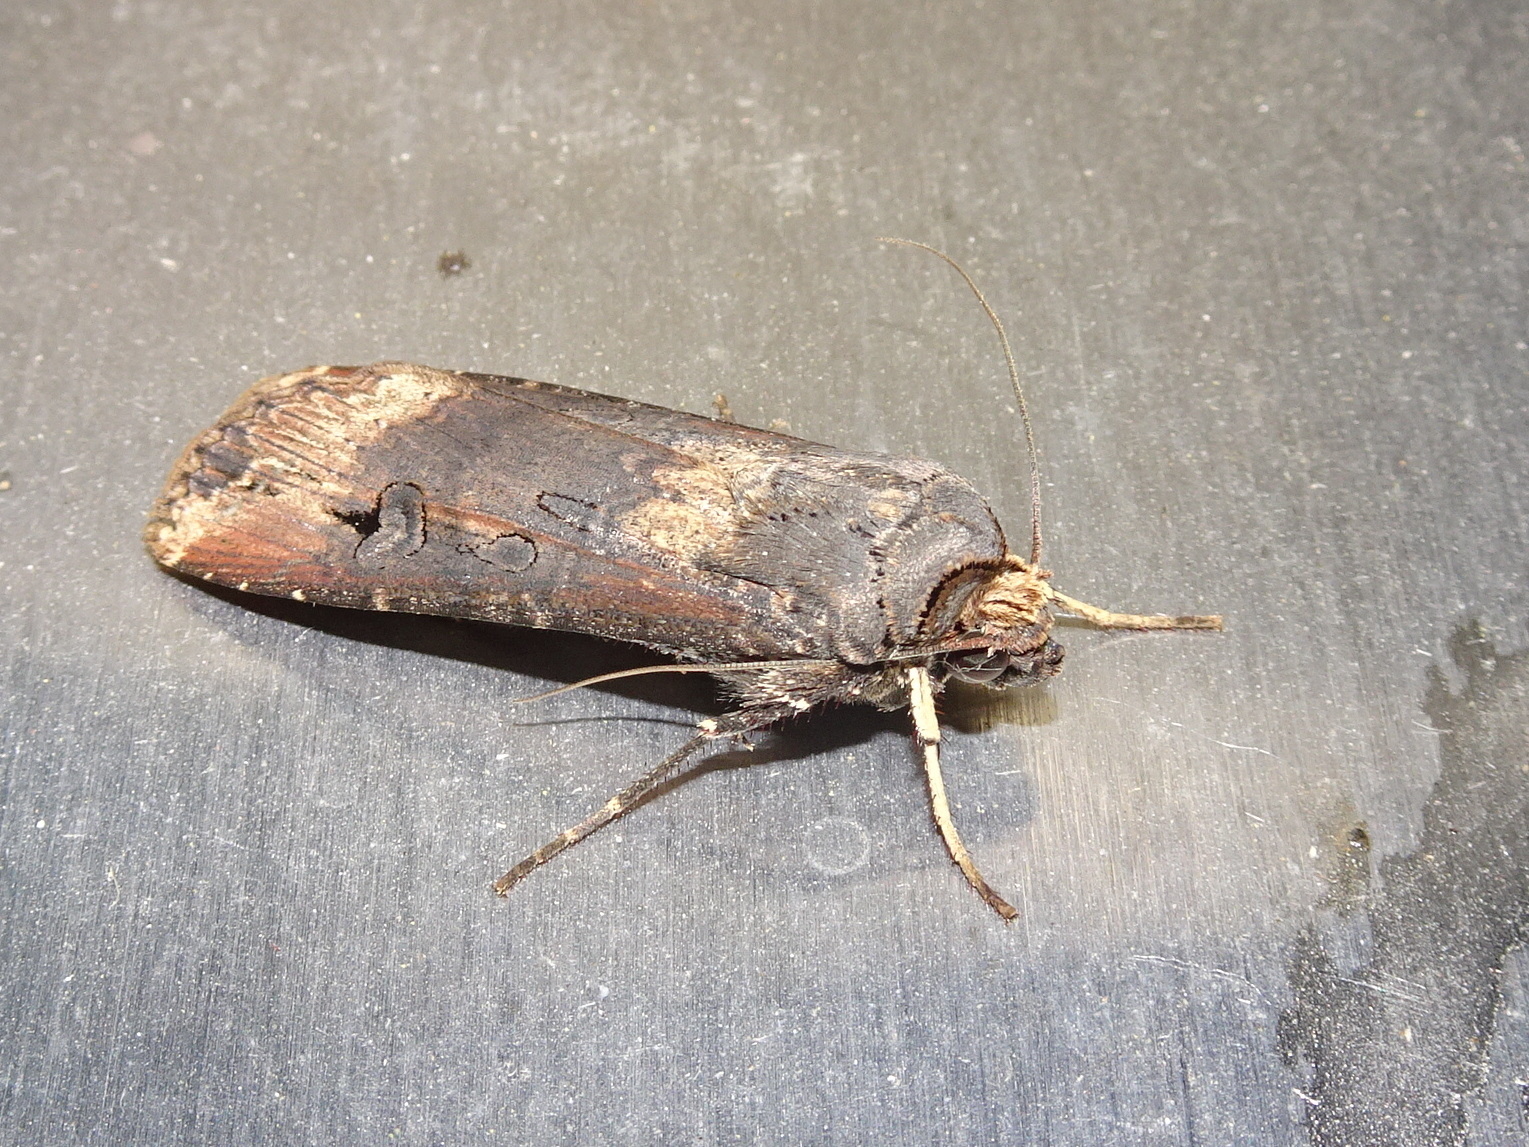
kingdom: Animalia
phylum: Arthropoda
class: Insecta
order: Lepidoptera
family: Noctuidae
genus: Agrotis
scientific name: Agrotis ipsilon
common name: Dark sword-grass
